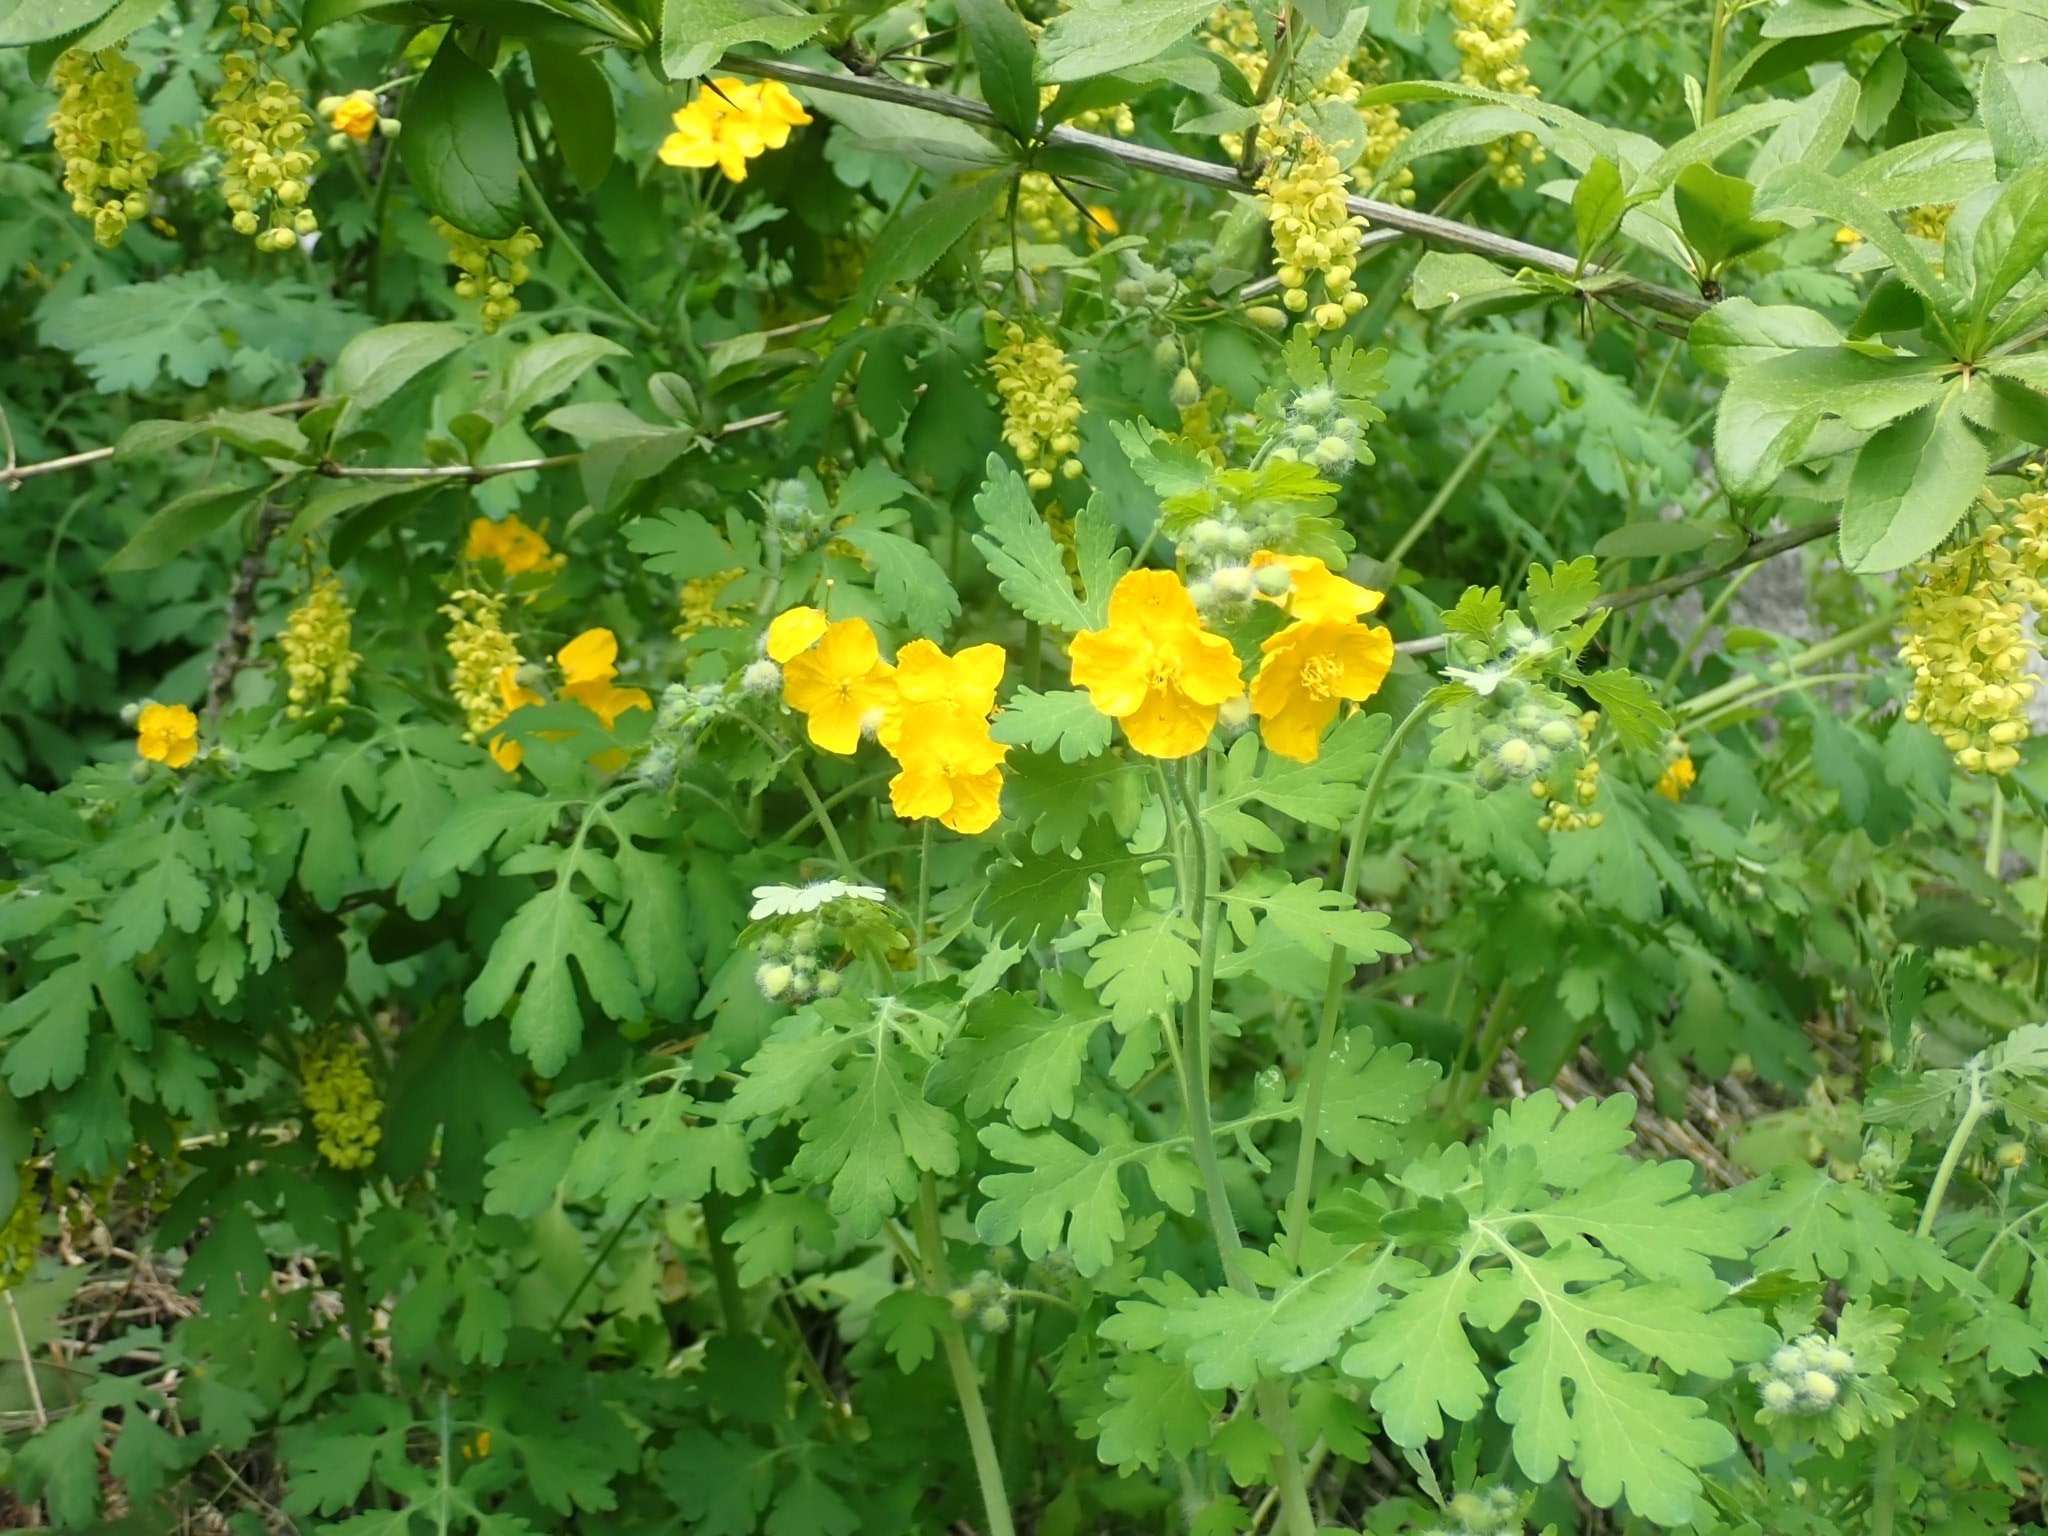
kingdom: Plantae
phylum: Tracheophyta
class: Magnoliopsida
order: Ranunculales
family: Papaveraceae
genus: Chelidonium
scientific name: Chelidonium majus
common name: Greater celandine
